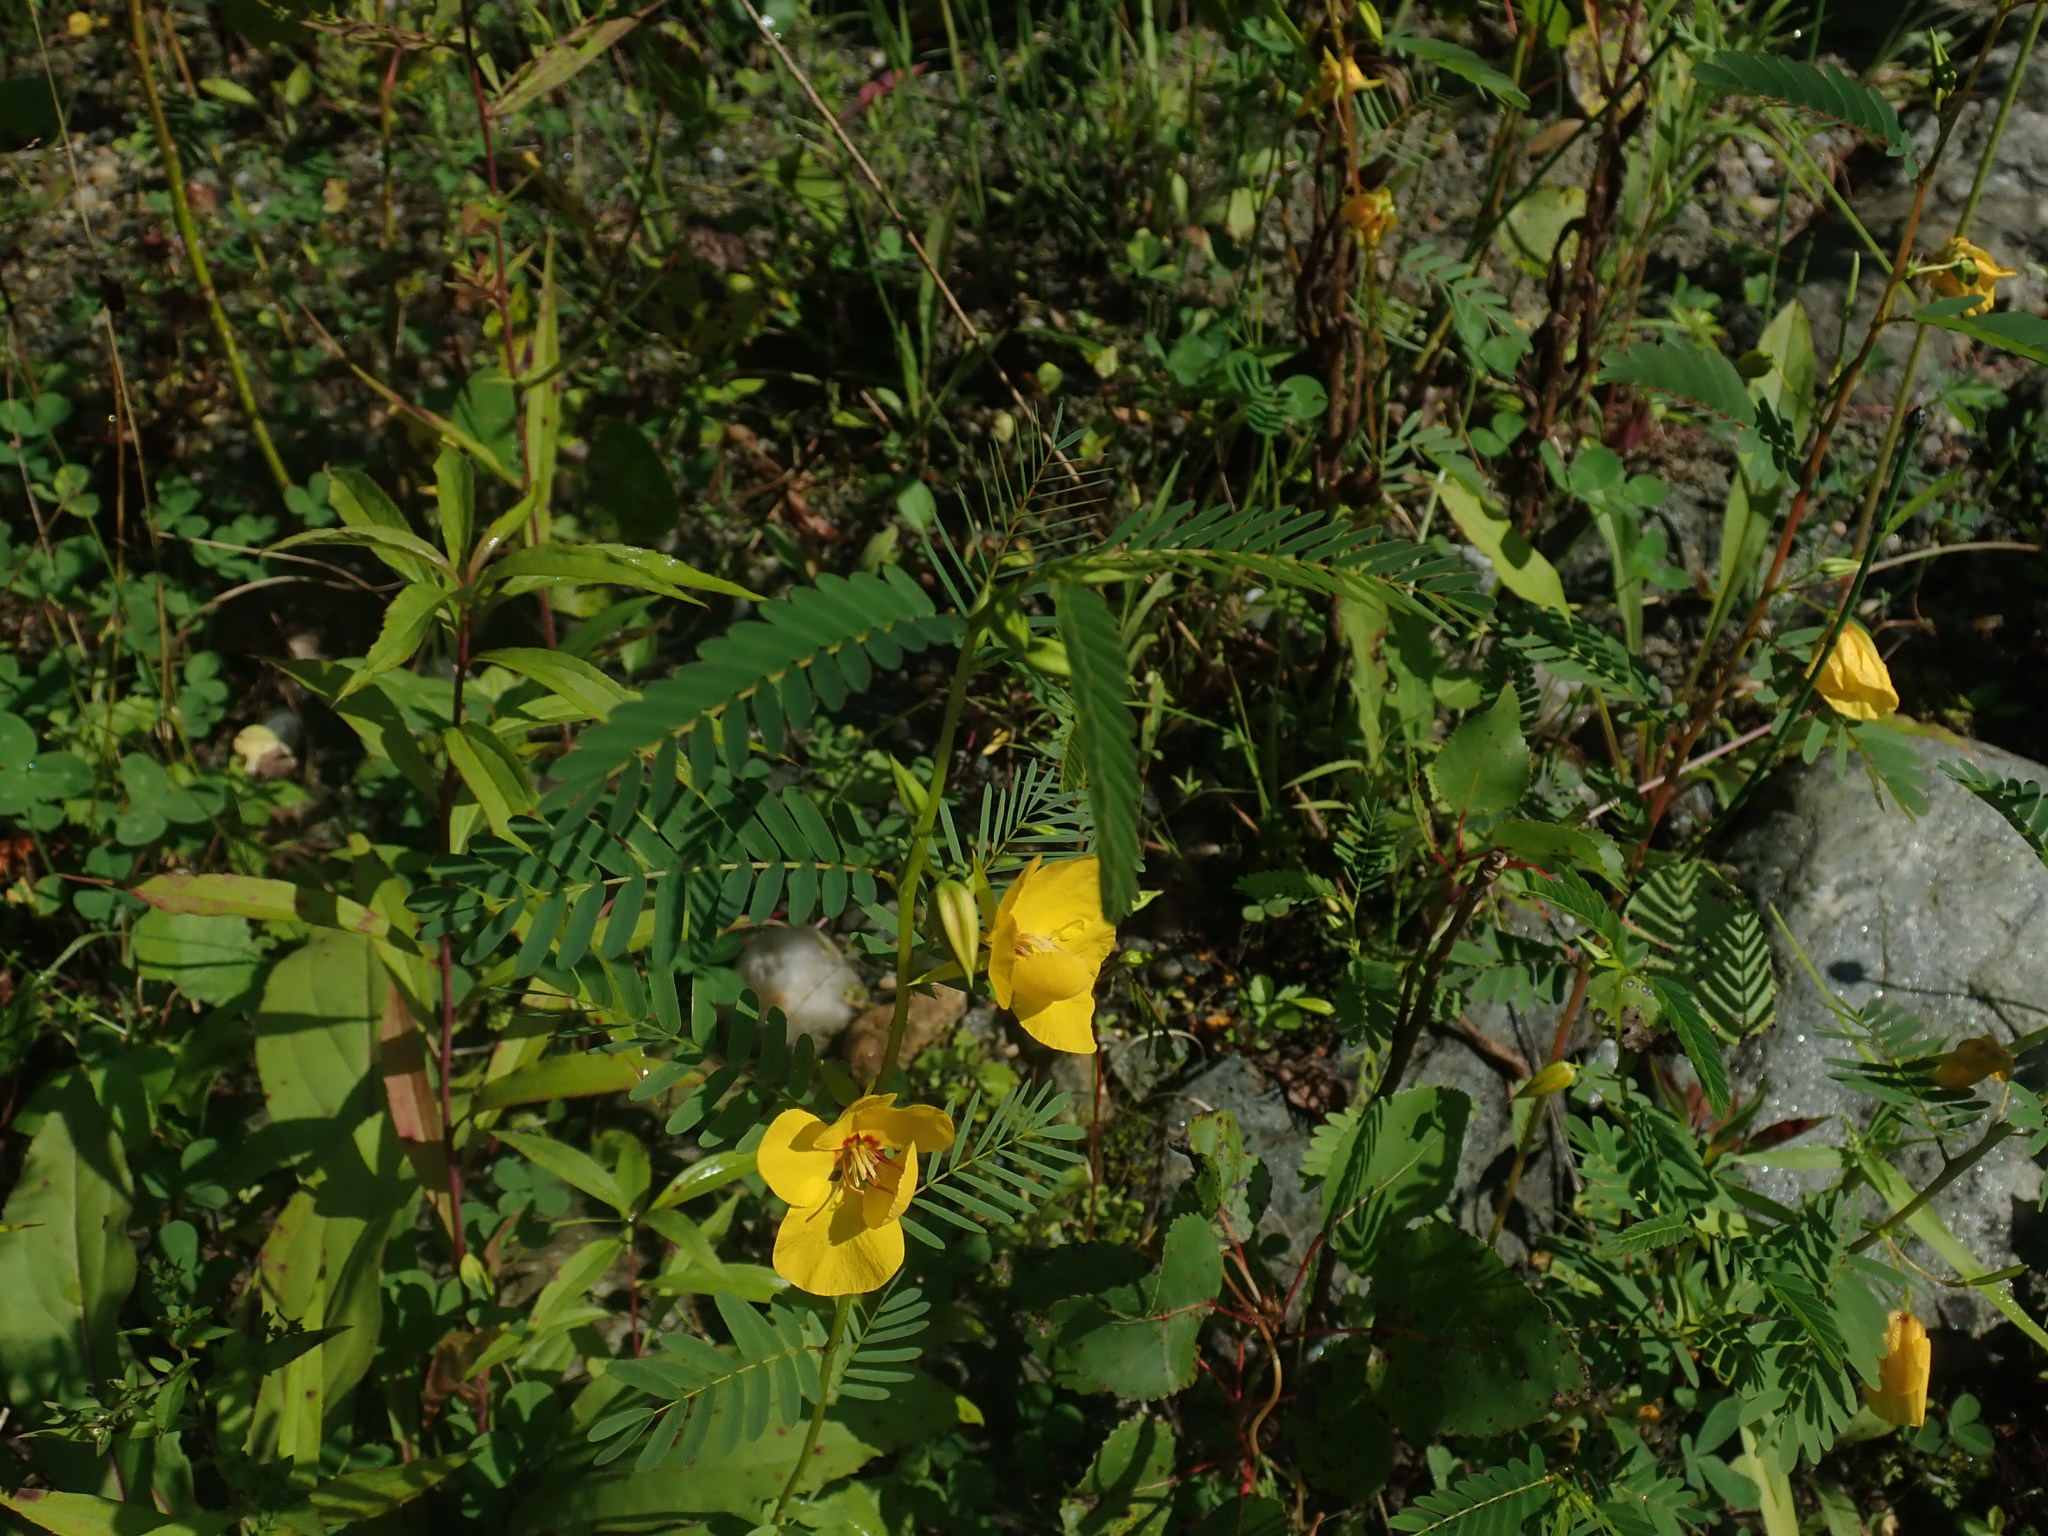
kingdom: Plantae
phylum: Tracheophyta
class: Magnoliopsida
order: Fabales
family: Fabaceae
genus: Chamaecrista
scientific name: Chamaecrista fasciculata
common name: Golden cassia
